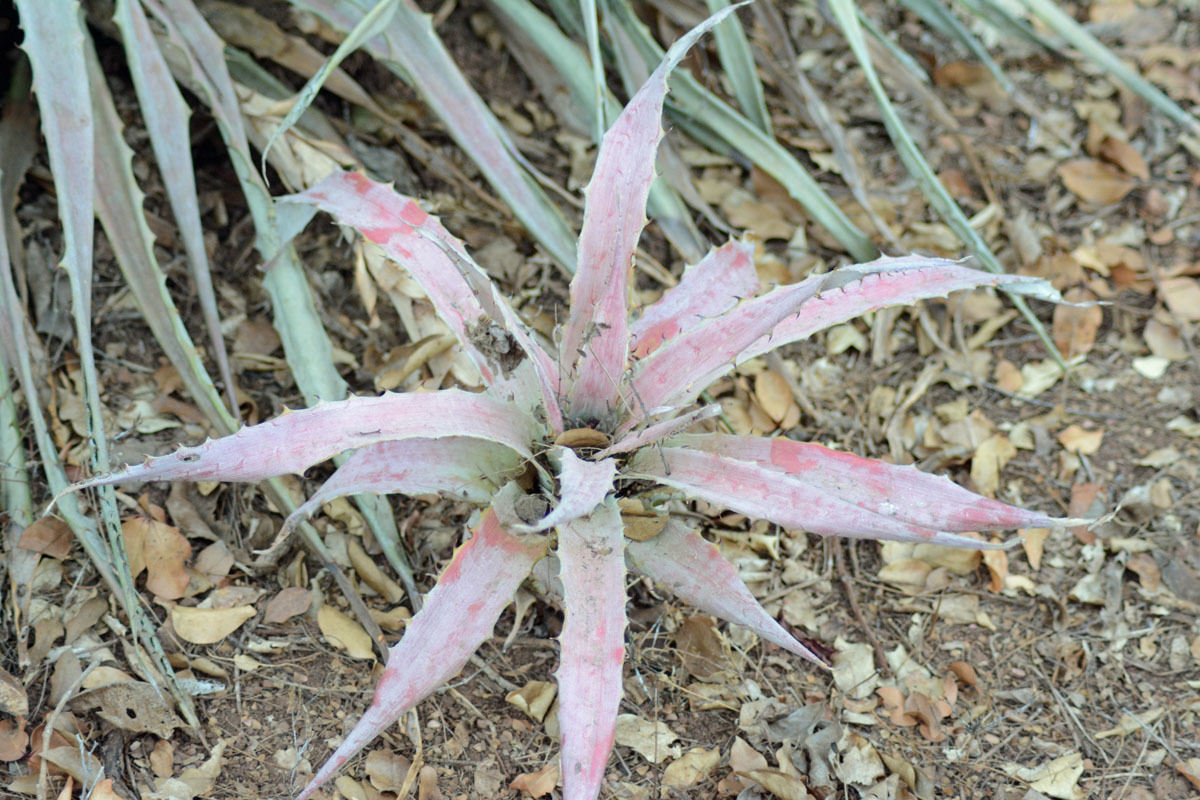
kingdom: Plantae
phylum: Tracheophyta
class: Liliopsida
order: Poales
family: Bromeliaceae
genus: Bromelia
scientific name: Bromelia pinguin
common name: Pinguin
